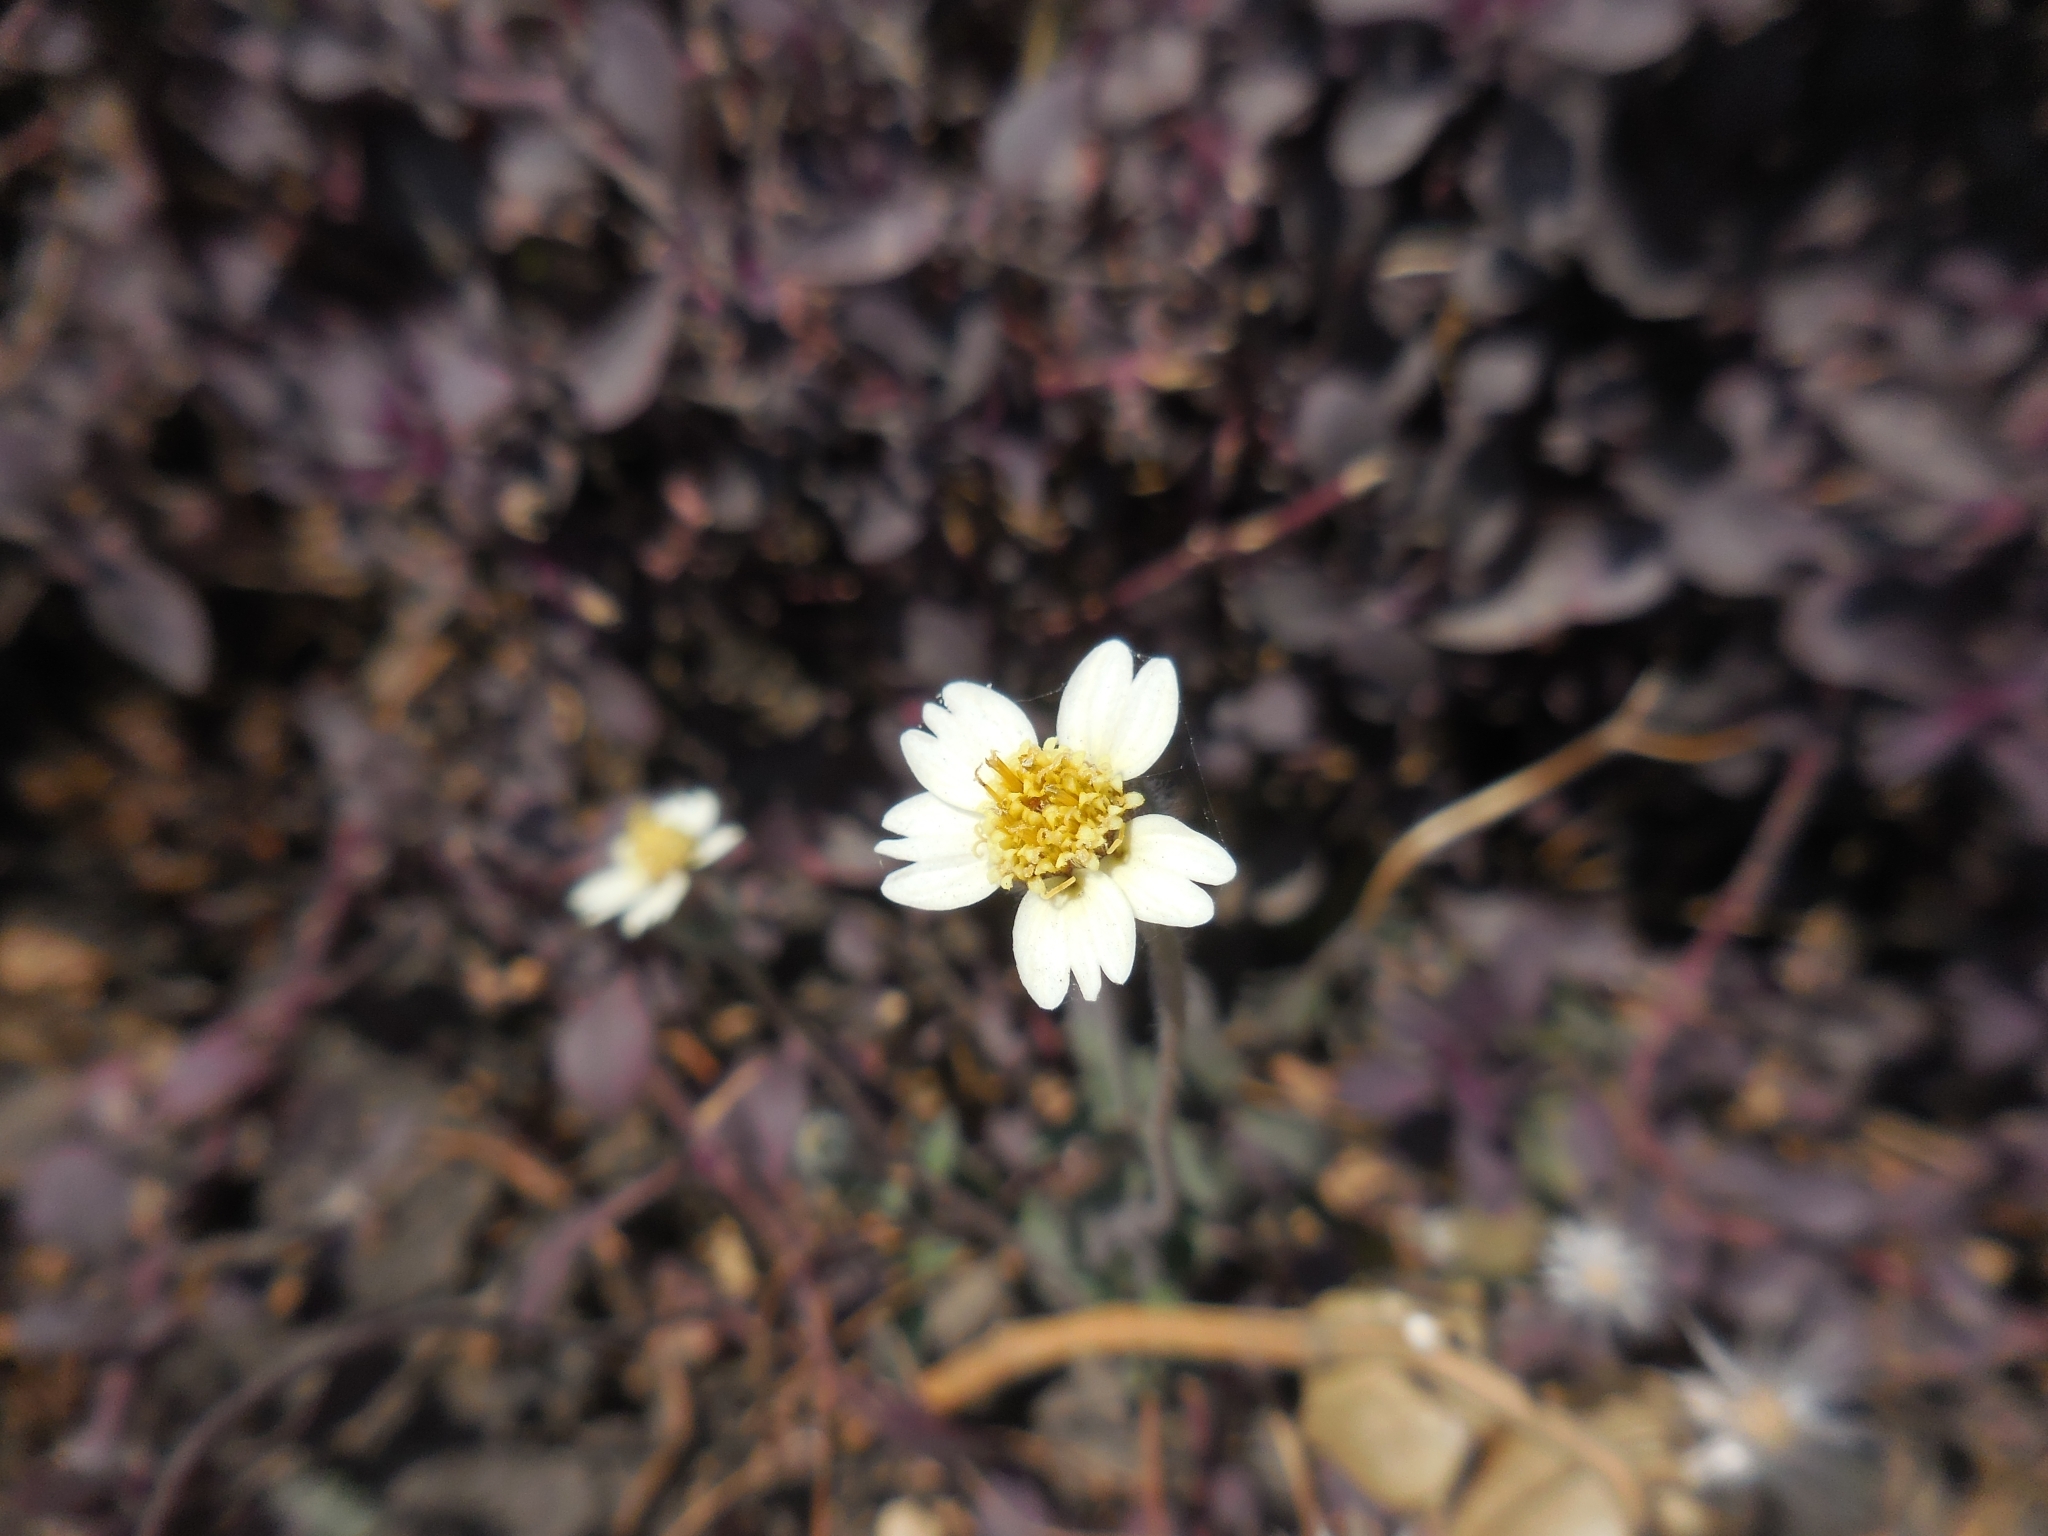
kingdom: Plantae
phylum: Tracheophyta
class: Magnoliopsida
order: Asterales
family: Asteraceae
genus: Tridax
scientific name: Tridax procumbens
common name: Coatbuttons
